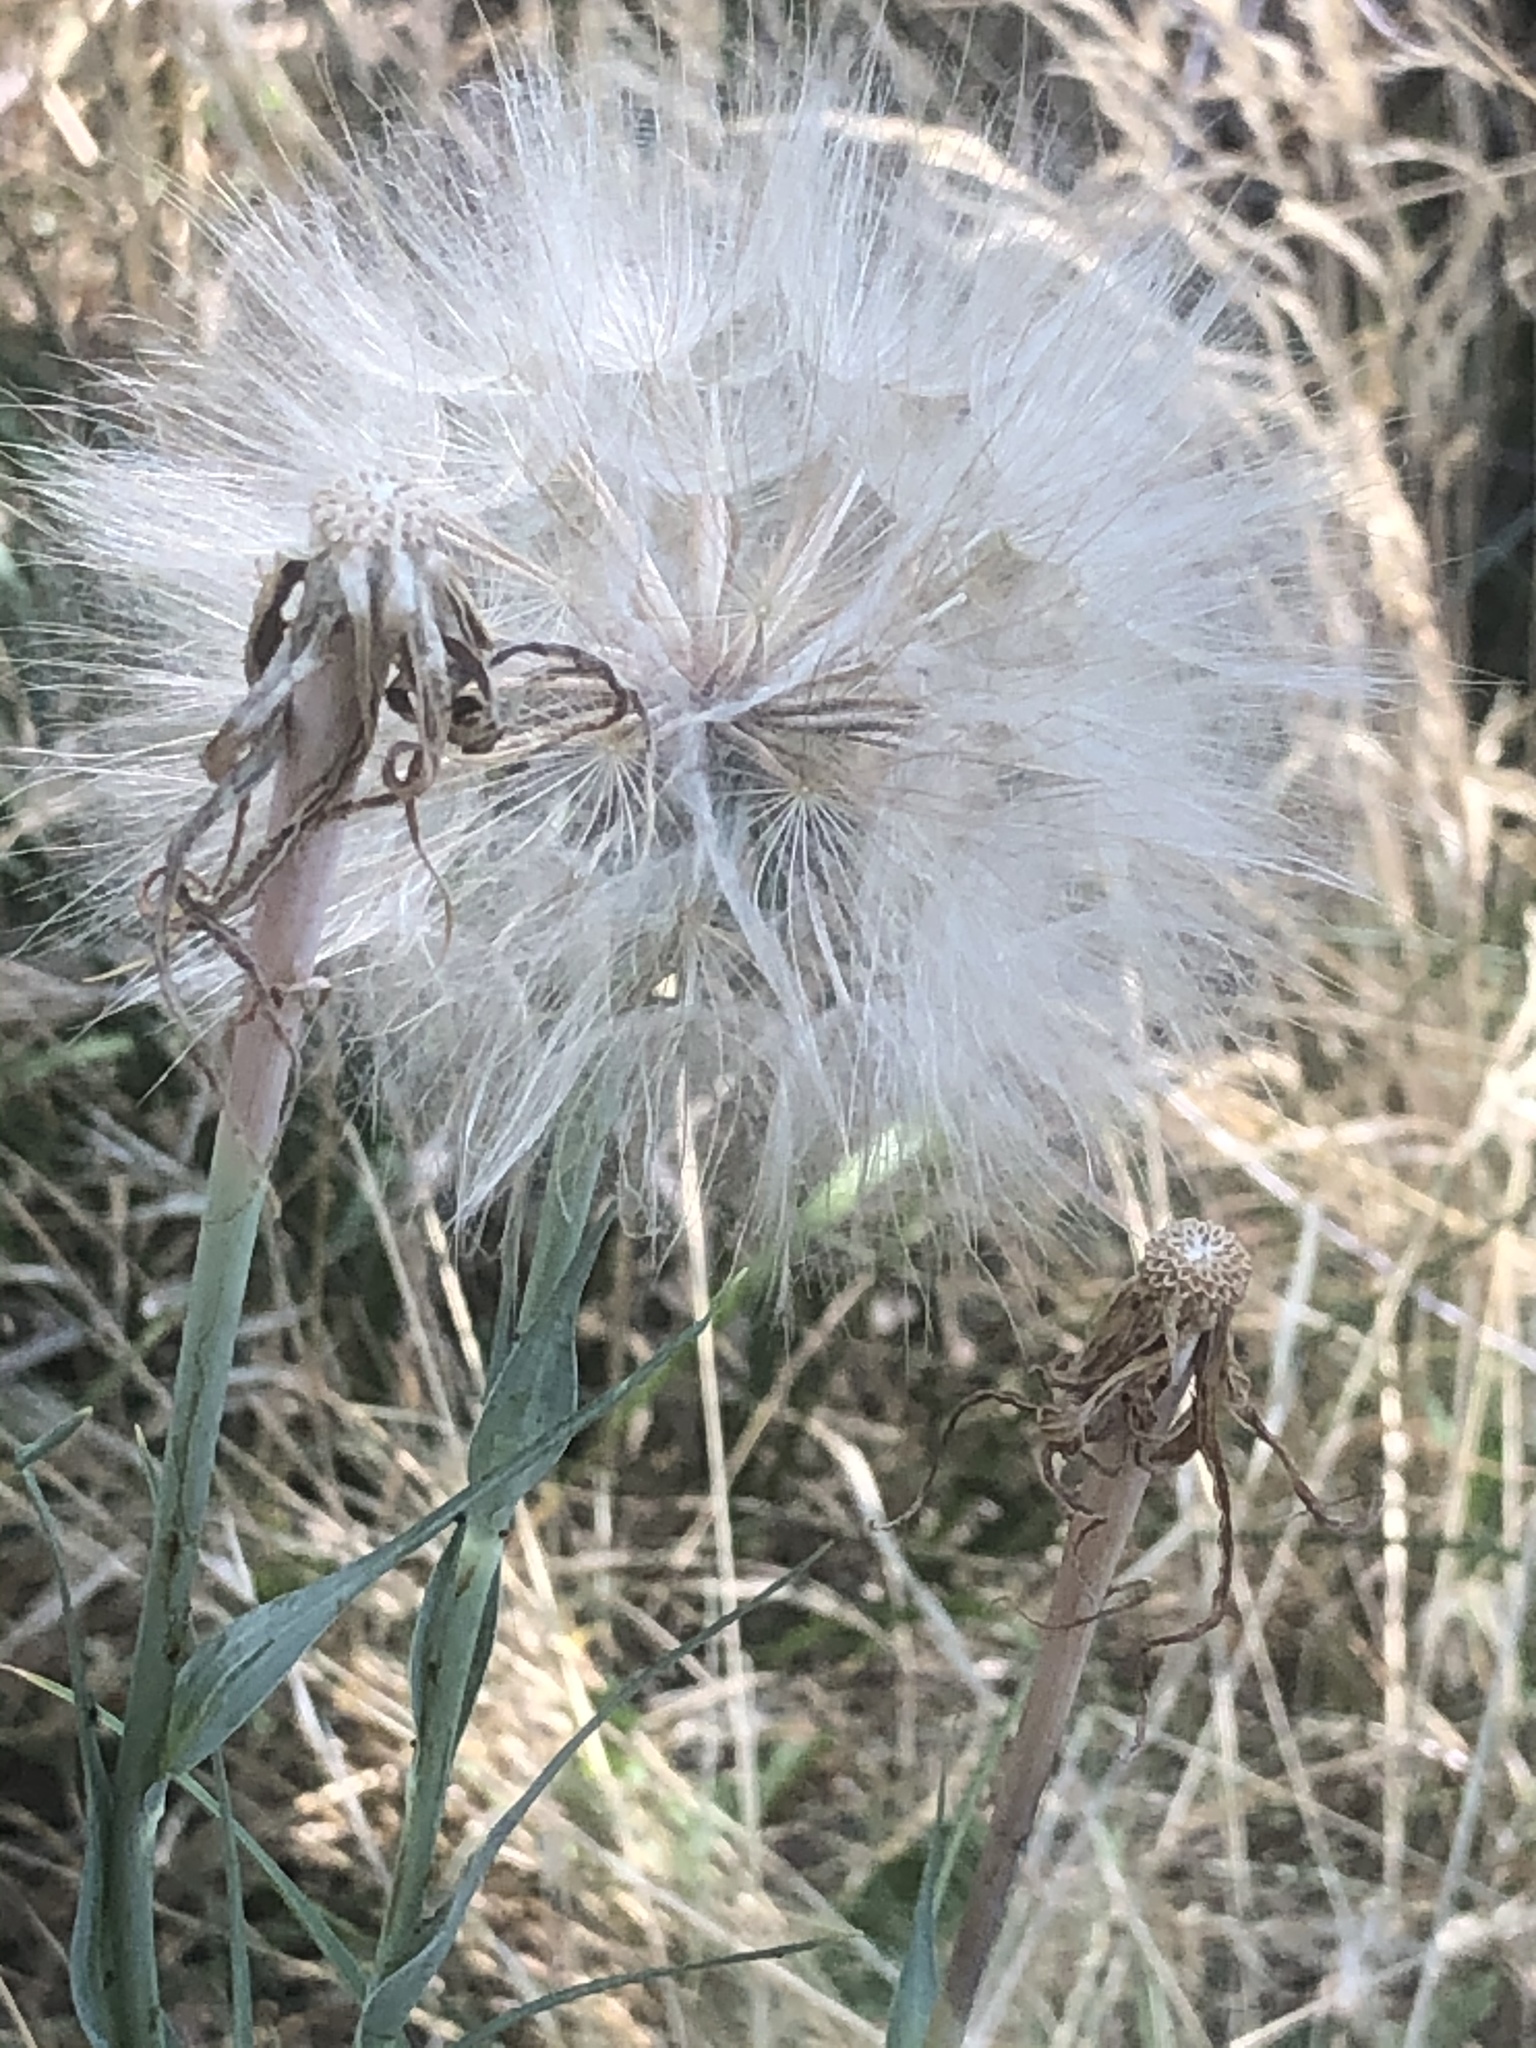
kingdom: Plantae
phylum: Tracheophyta
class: Magnoliopsida
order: Asterales
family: Asteraceae
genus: Tragopogon
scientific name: Tragopogon dubius
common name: Yellow salsify
